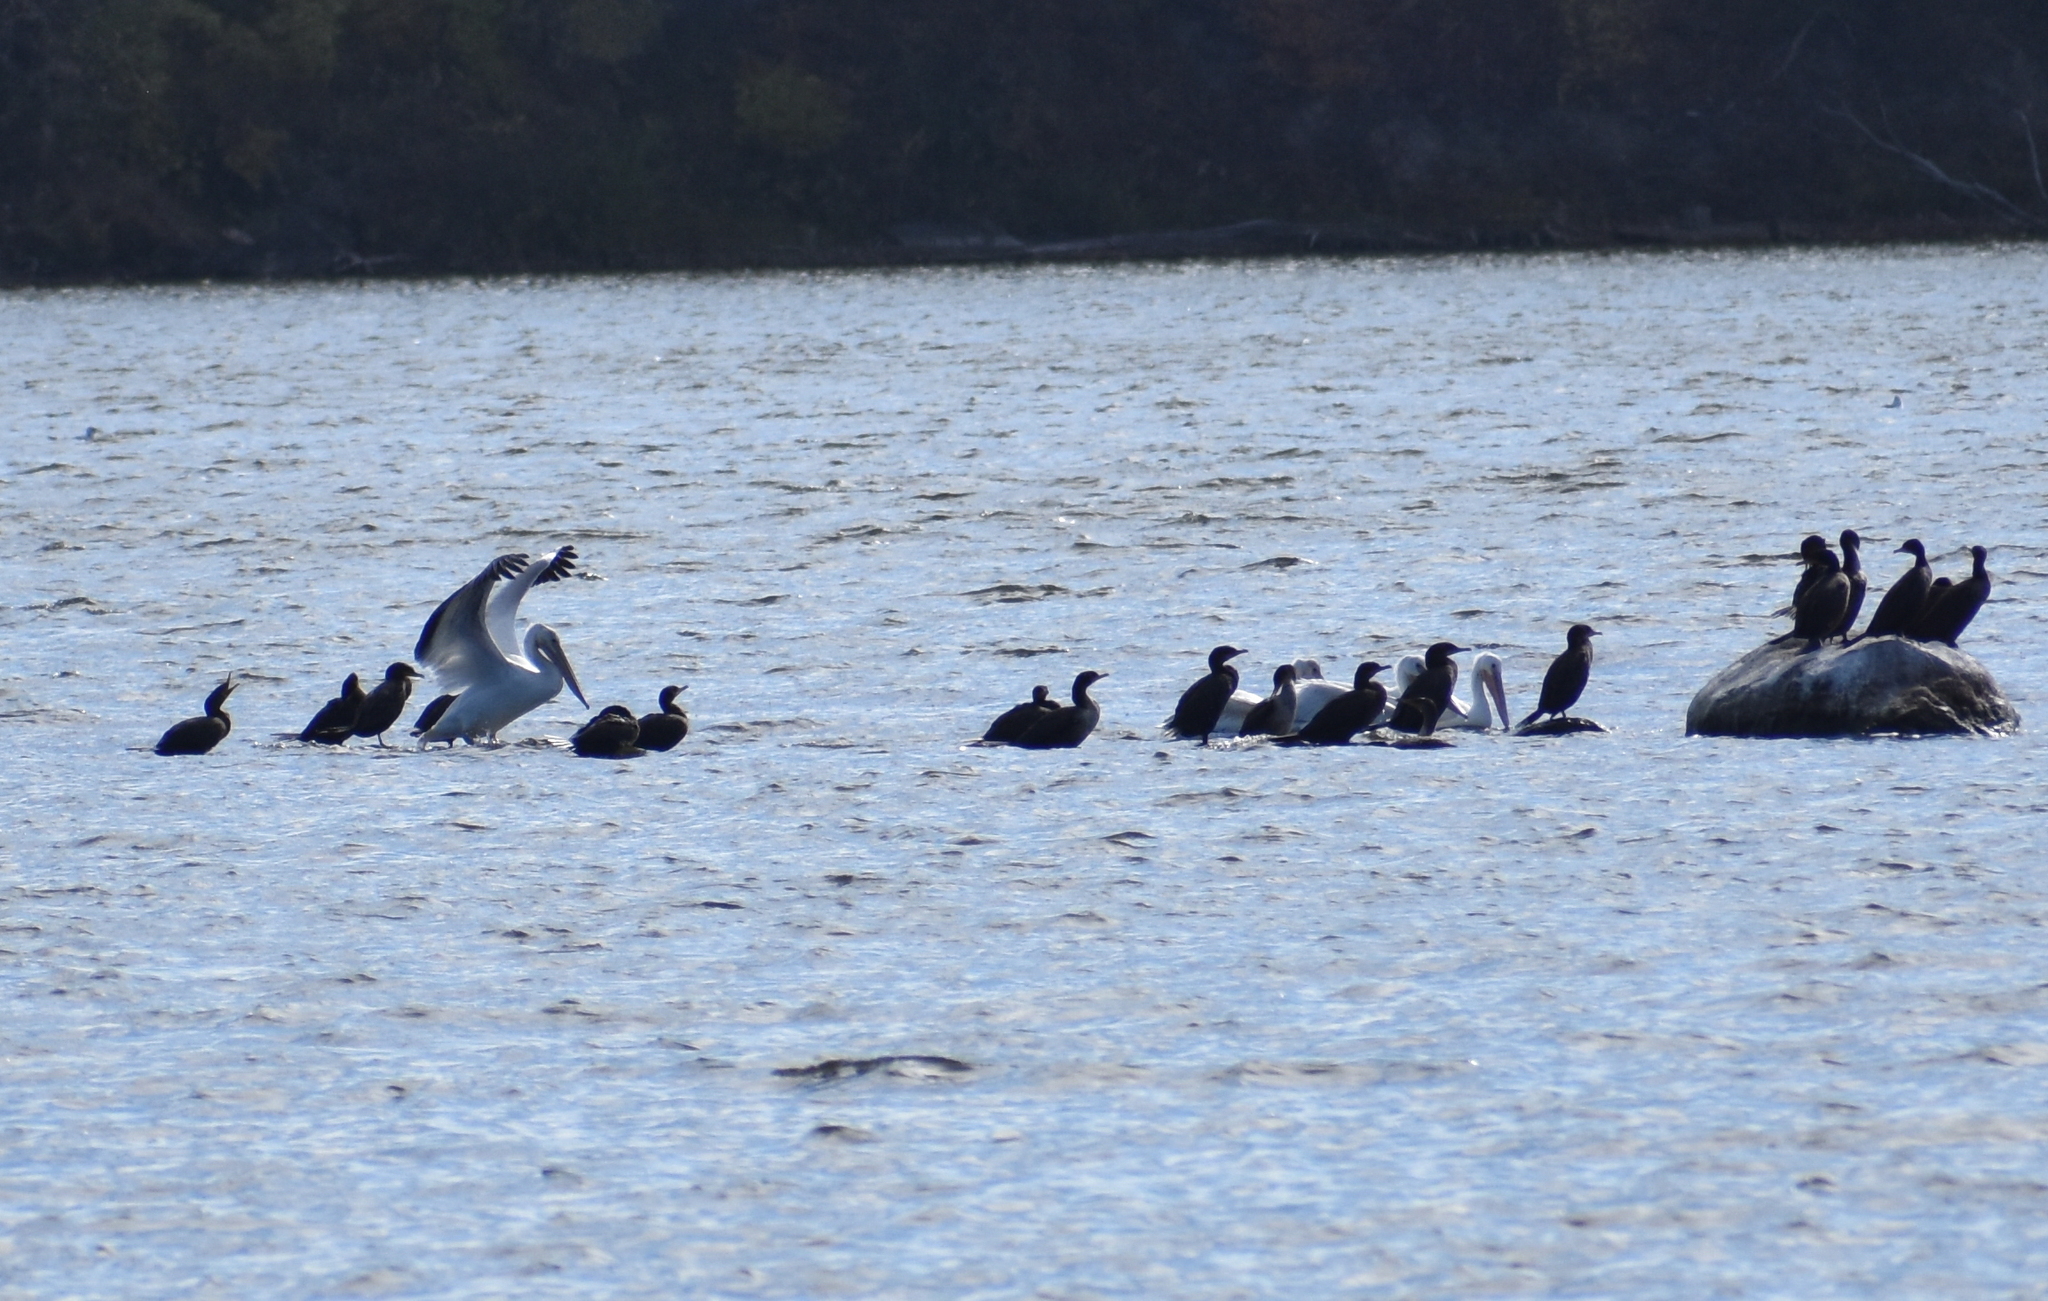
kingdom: Animalia
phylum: Chordata
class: Aves
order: Pelecaniformes
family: Pelecanidae
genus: Pelecanus
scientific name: Pelecanus erythrorhynchos
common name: American white pelican
